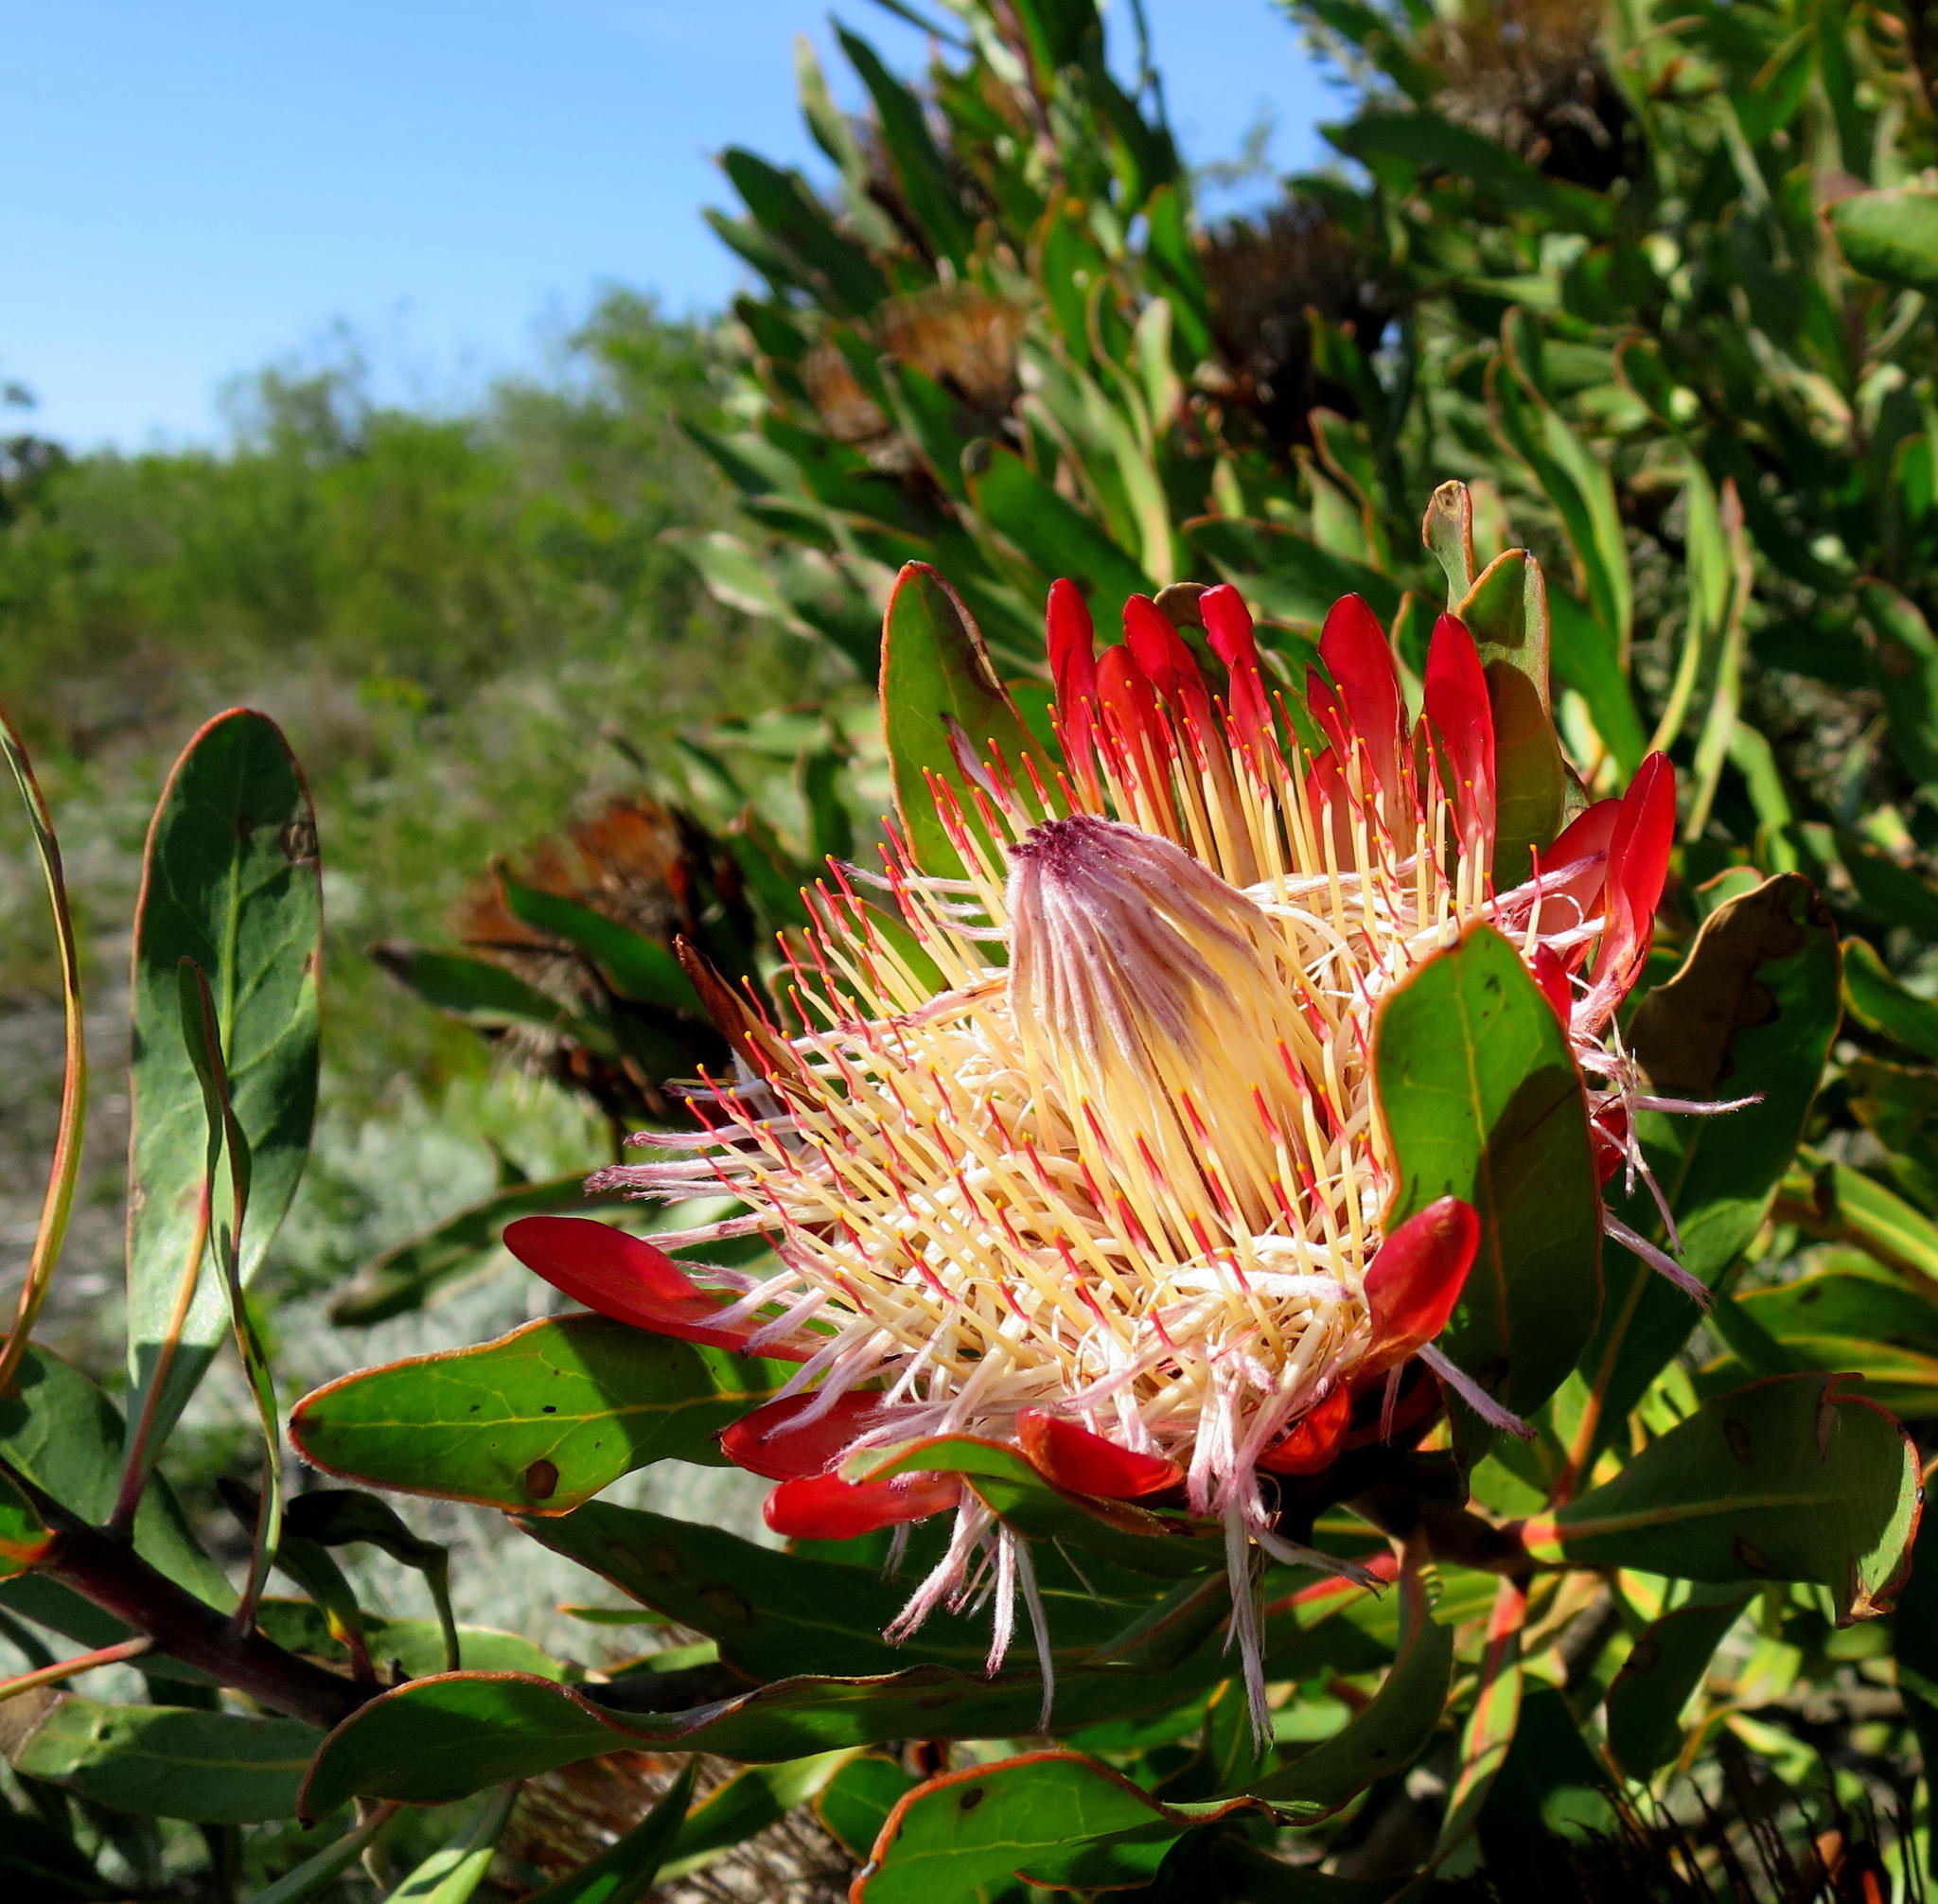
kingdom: Plantae
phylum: Tracheophyta
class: Magnoliopsida
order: Proteales
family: Proteaceae
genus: Protea
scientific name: Protea susannae
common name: Foetid-leaf sugarbush
